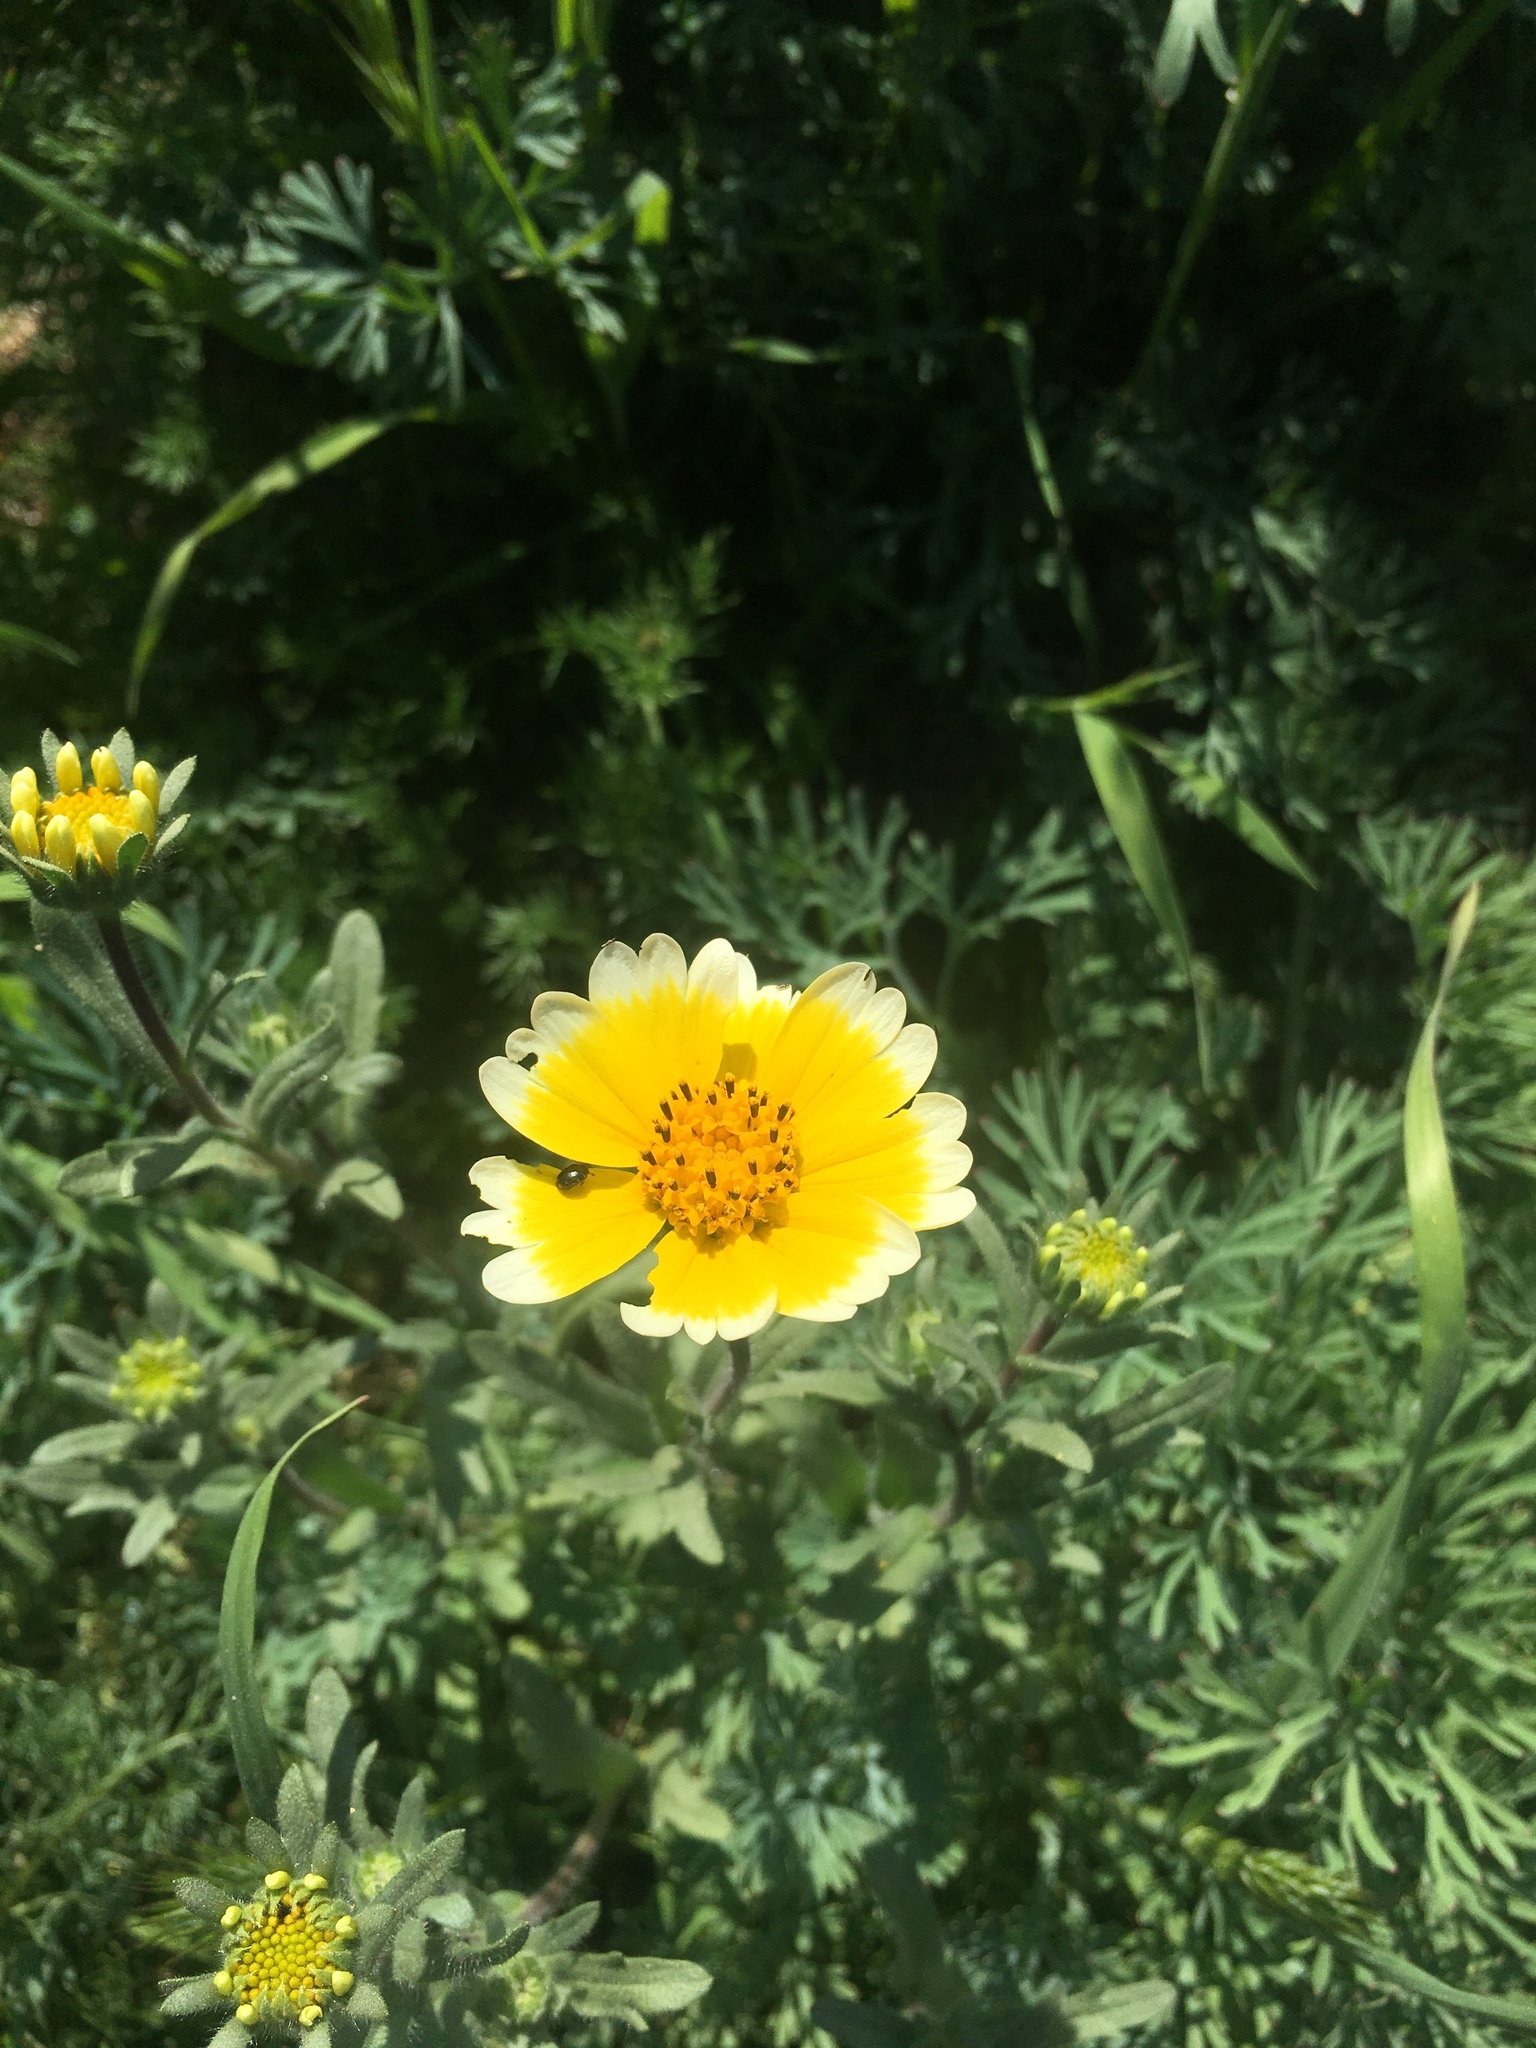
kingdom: Plantae
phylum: Tracheophyta
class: Magnoliopsida
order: Asterales
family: Asteraceae
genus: Layia
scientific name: Layia platyglossa
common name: Tidy-tips
